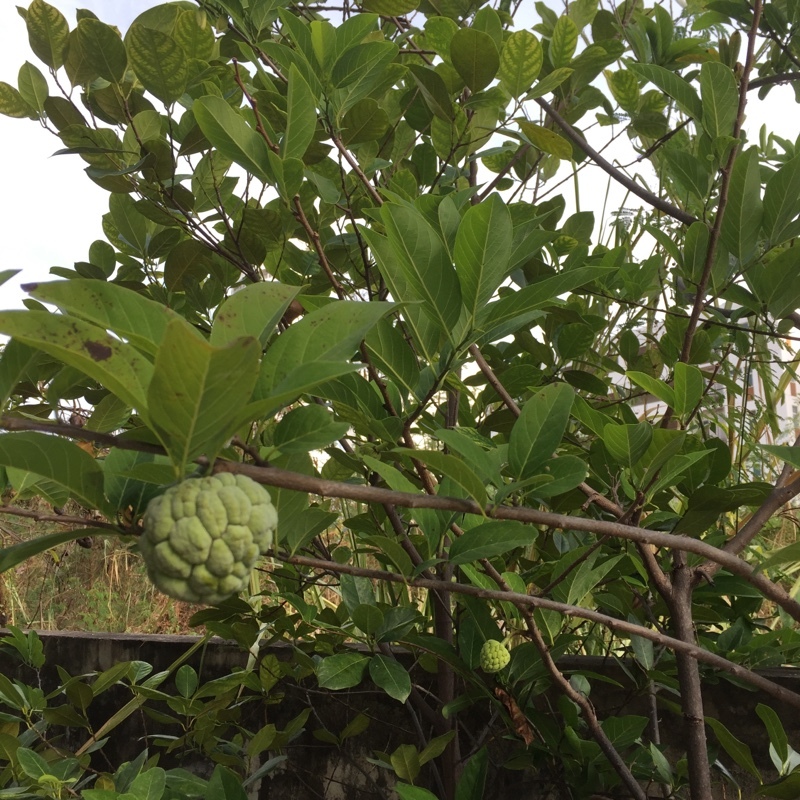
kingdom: Plantae
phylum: Tracheophyta
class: Magnoliopsida
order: Magnoliales
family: Annonaceae
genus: Annona
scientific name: Annona squamosa
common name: Custard-apple
